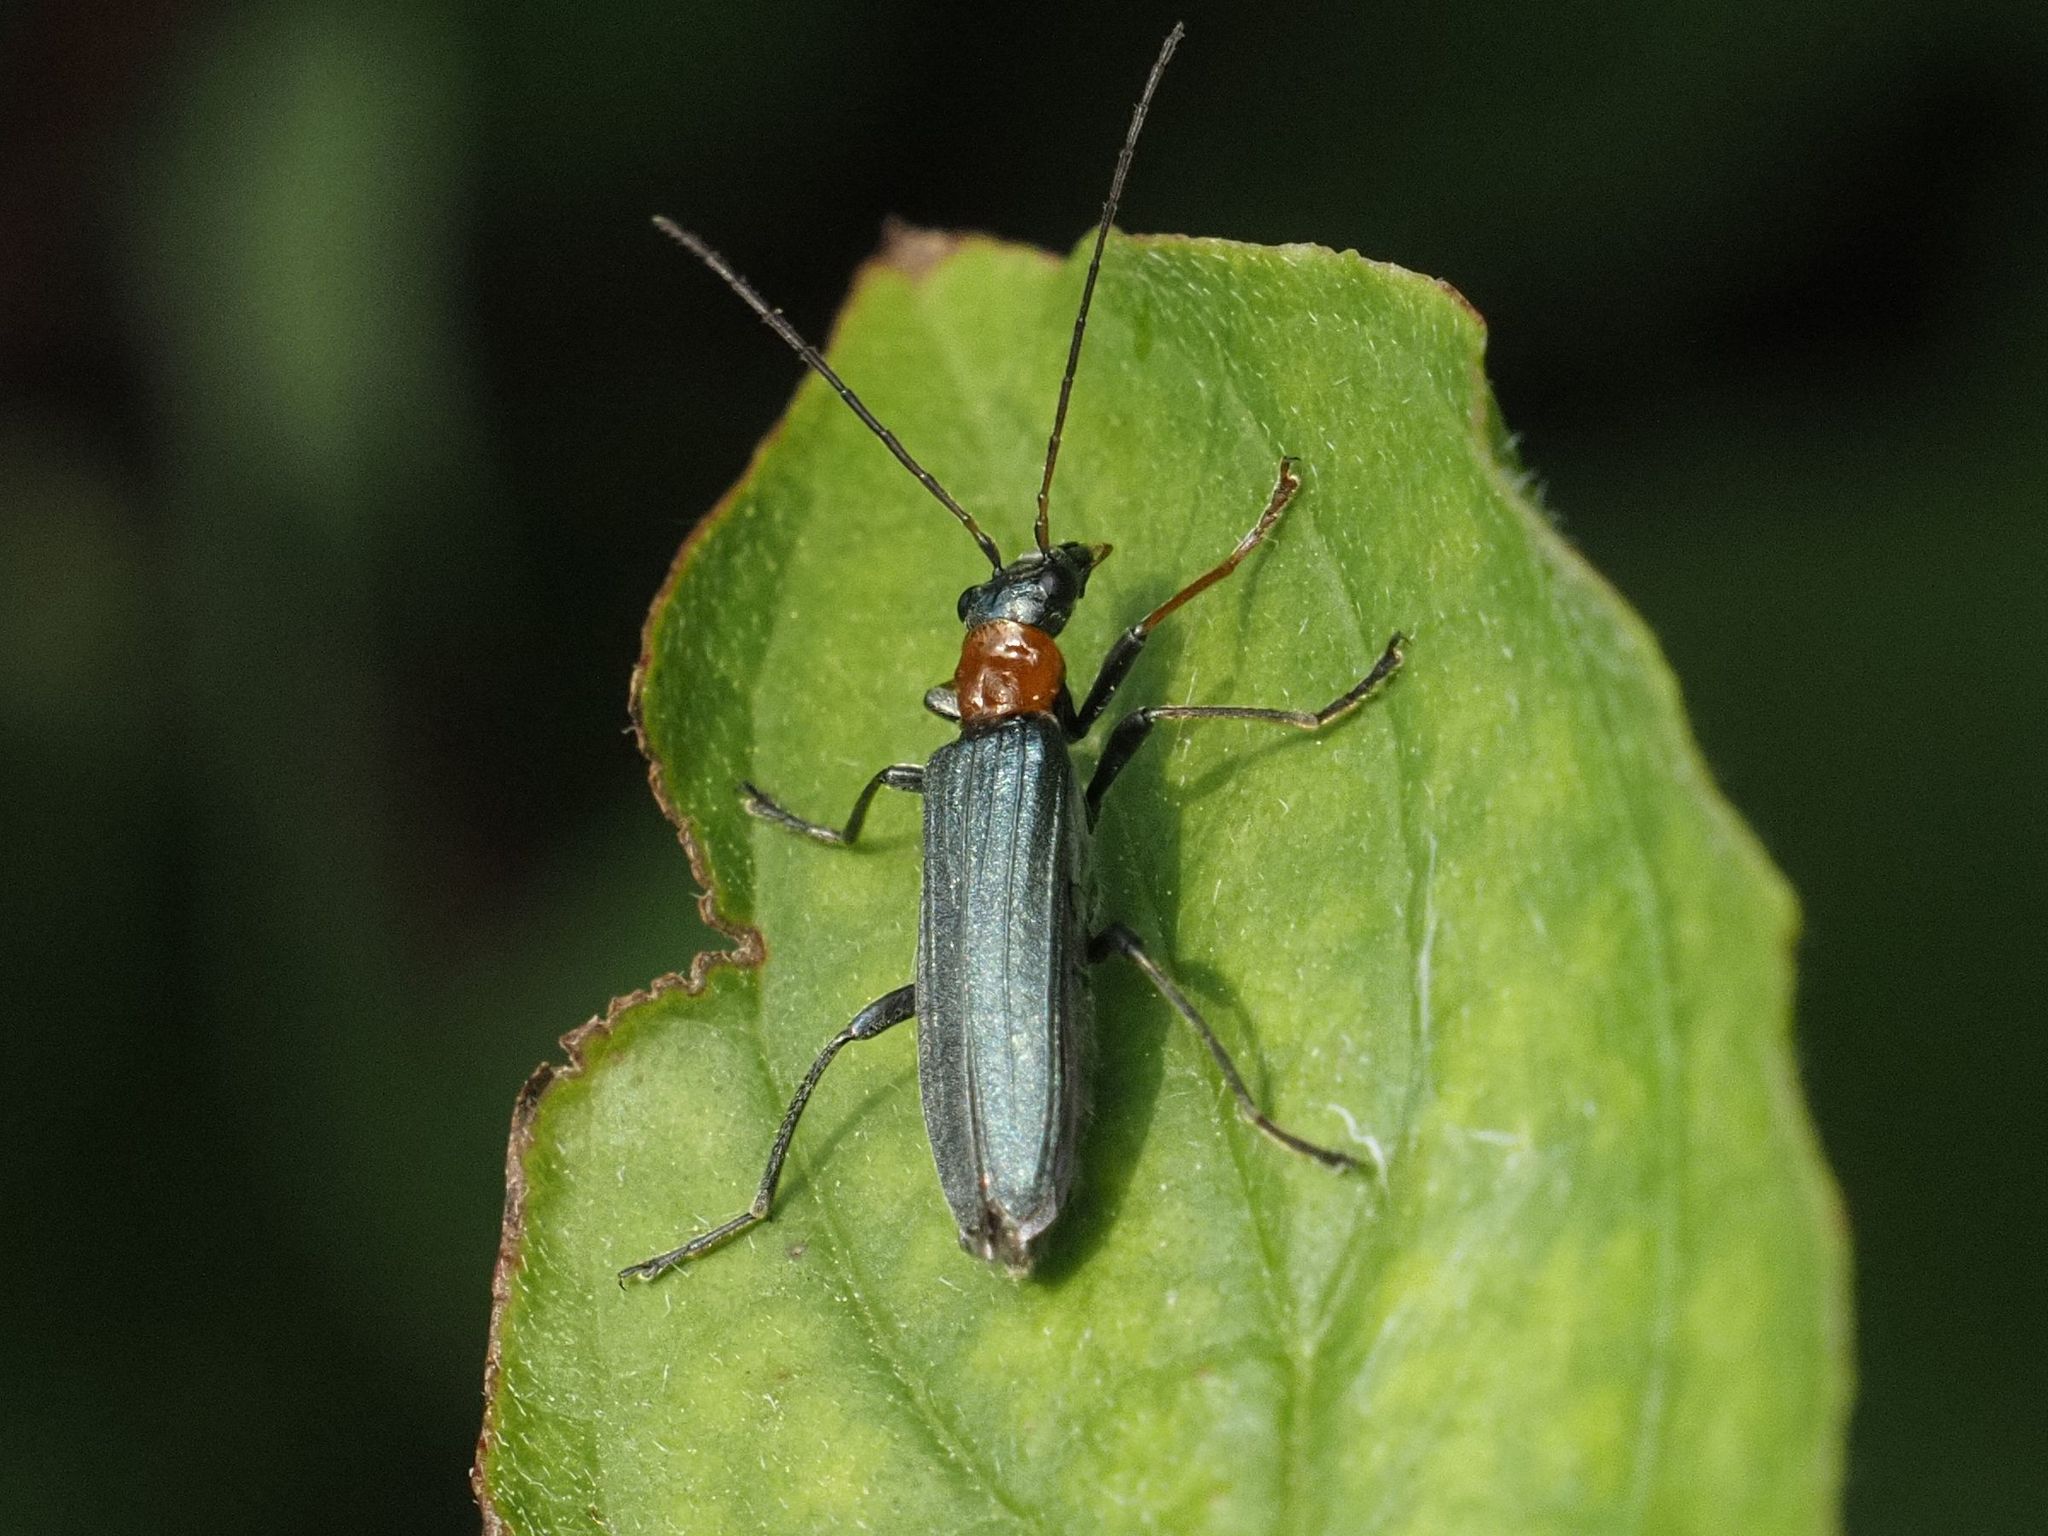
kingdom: Animalia
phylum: Arthropoda
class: Insecta
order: Coleoptera
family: Oedemeridae
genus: Oedemera
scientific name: Oedemera croceicollis
